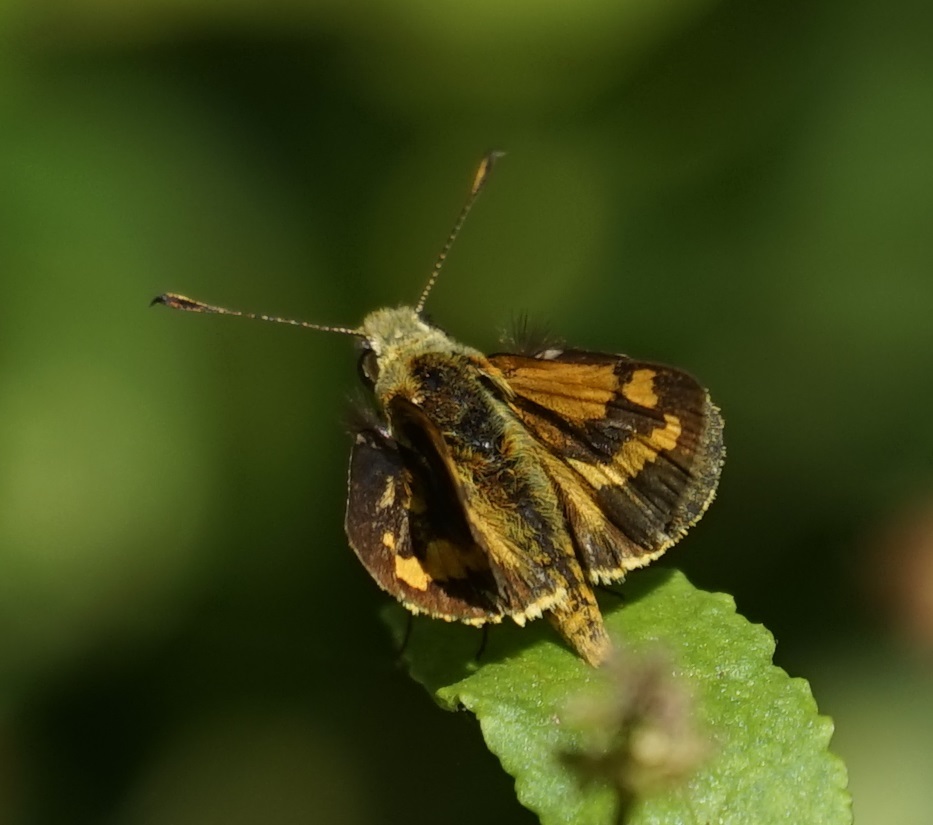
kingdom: Animalia
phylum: Arthropoda
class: Insecta
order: Lepidoptera
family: Hesperiidae
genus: Ocybadistes
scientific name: Ocybadistes walkeri
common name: Yellow-banded dart
